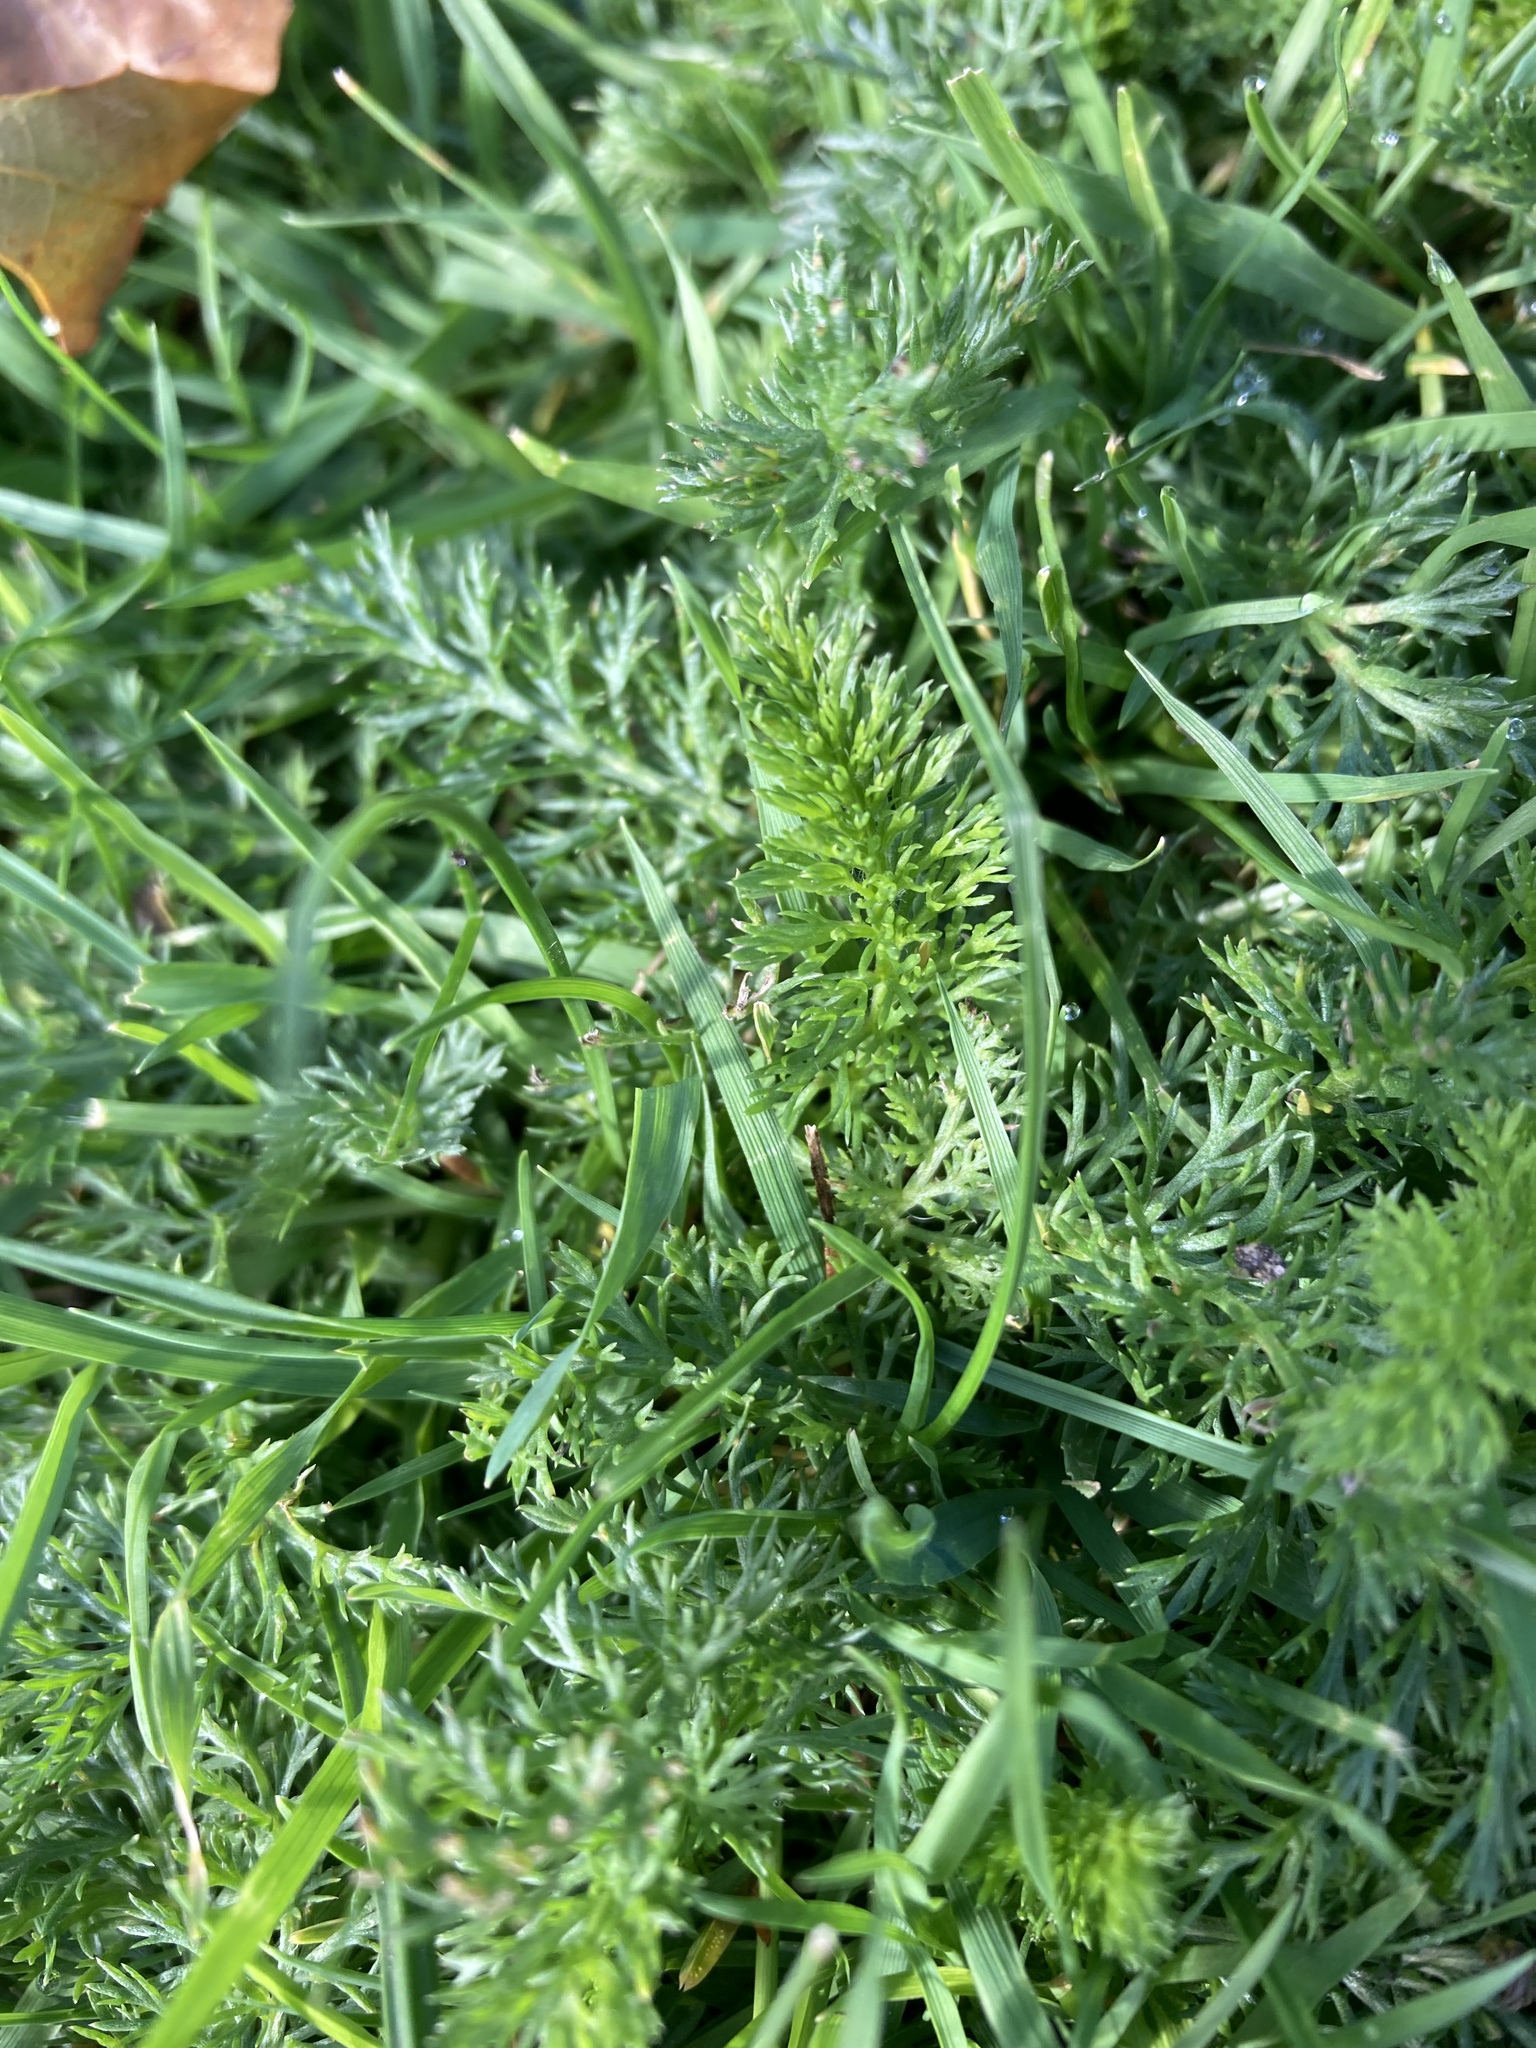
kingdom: Plantae
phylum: Tracheophyta
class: Magnoliopsida
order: Asterales
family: Asteraceae
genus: Achillea
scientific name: Achillea millefolium
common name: Yarrow
